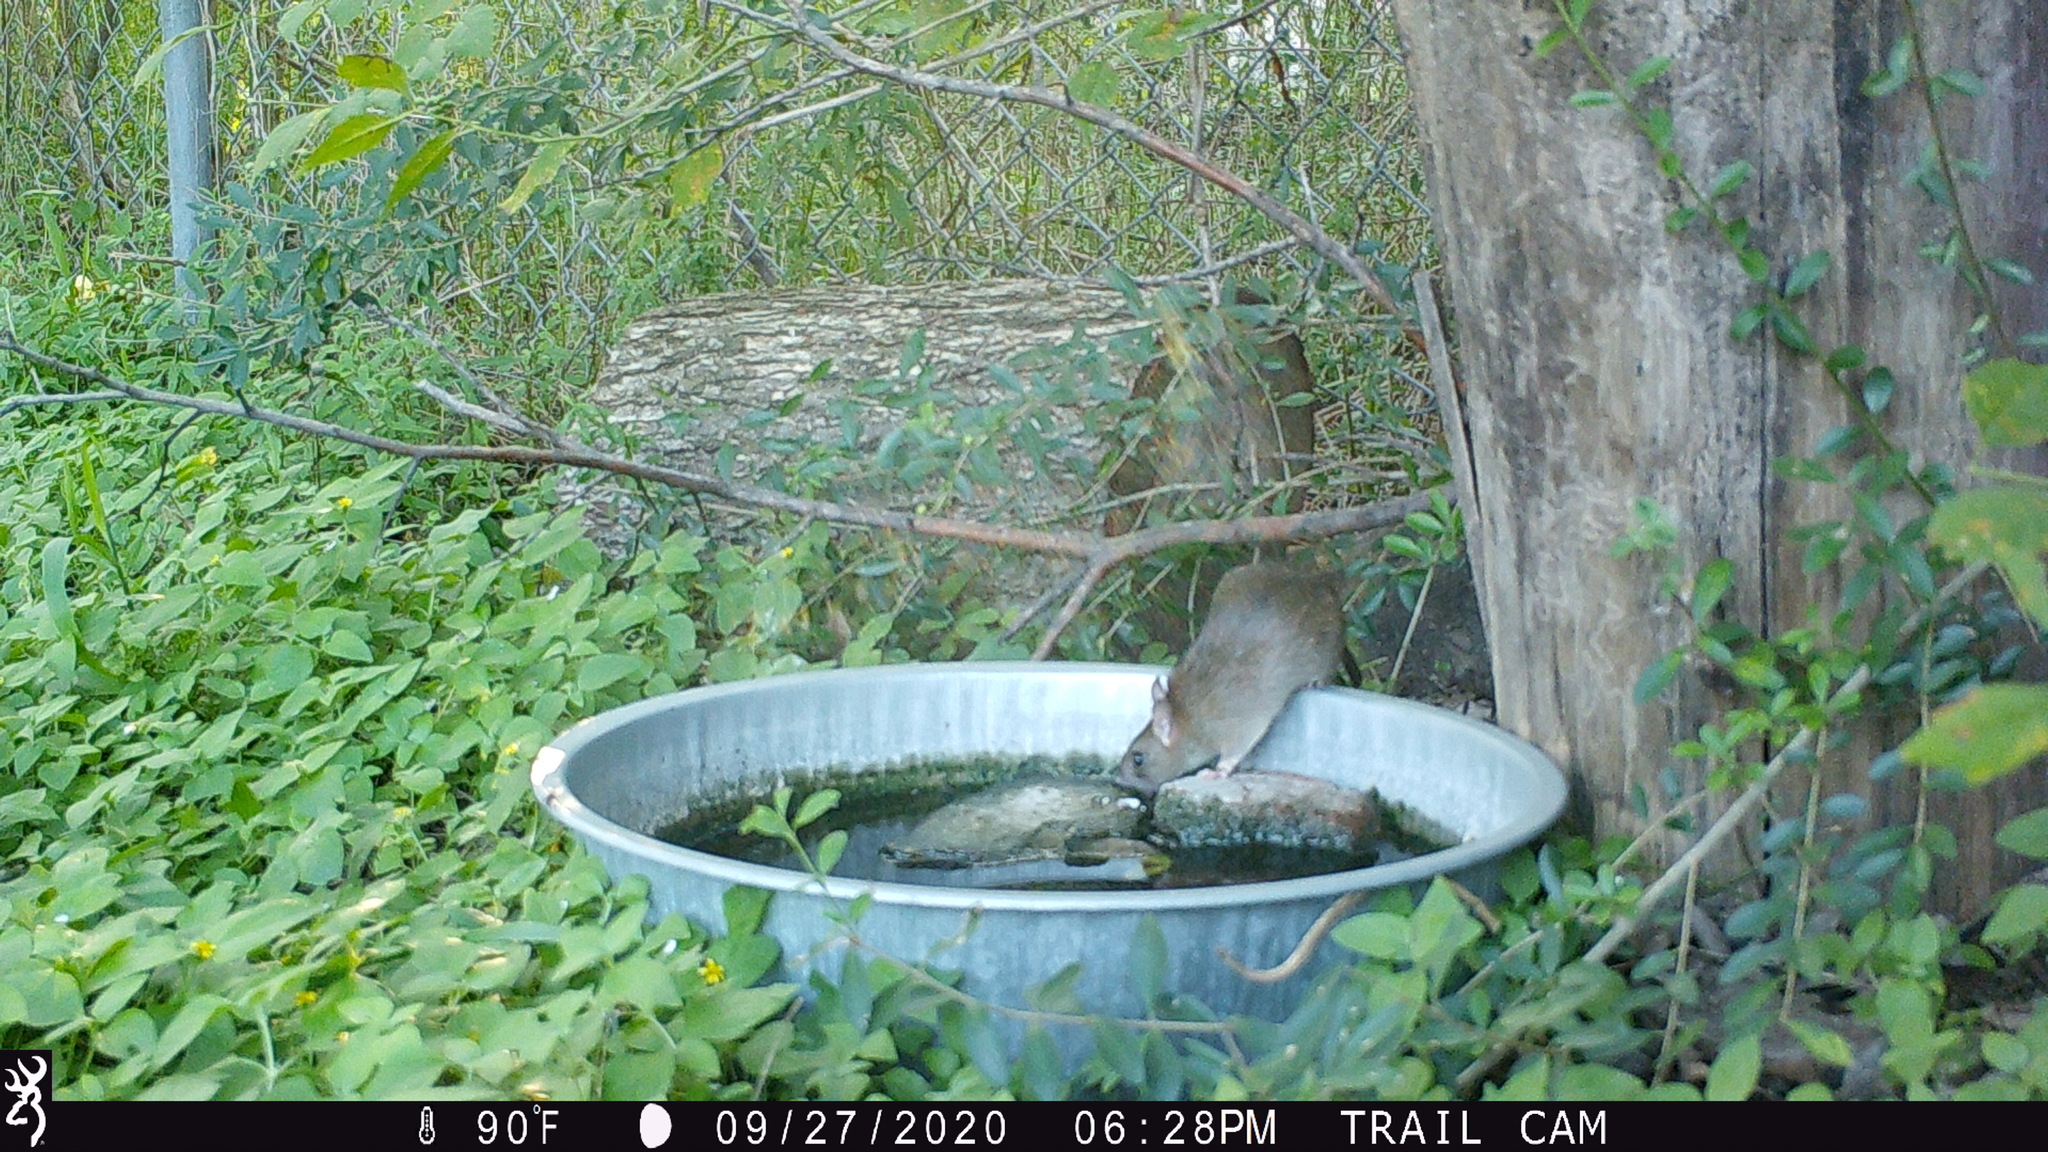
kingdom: Animalia
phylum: Chordata
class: Mammalia
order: Rodentia
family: Muridae
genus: Rattus
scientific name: Rattus rattus
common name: Black rat
